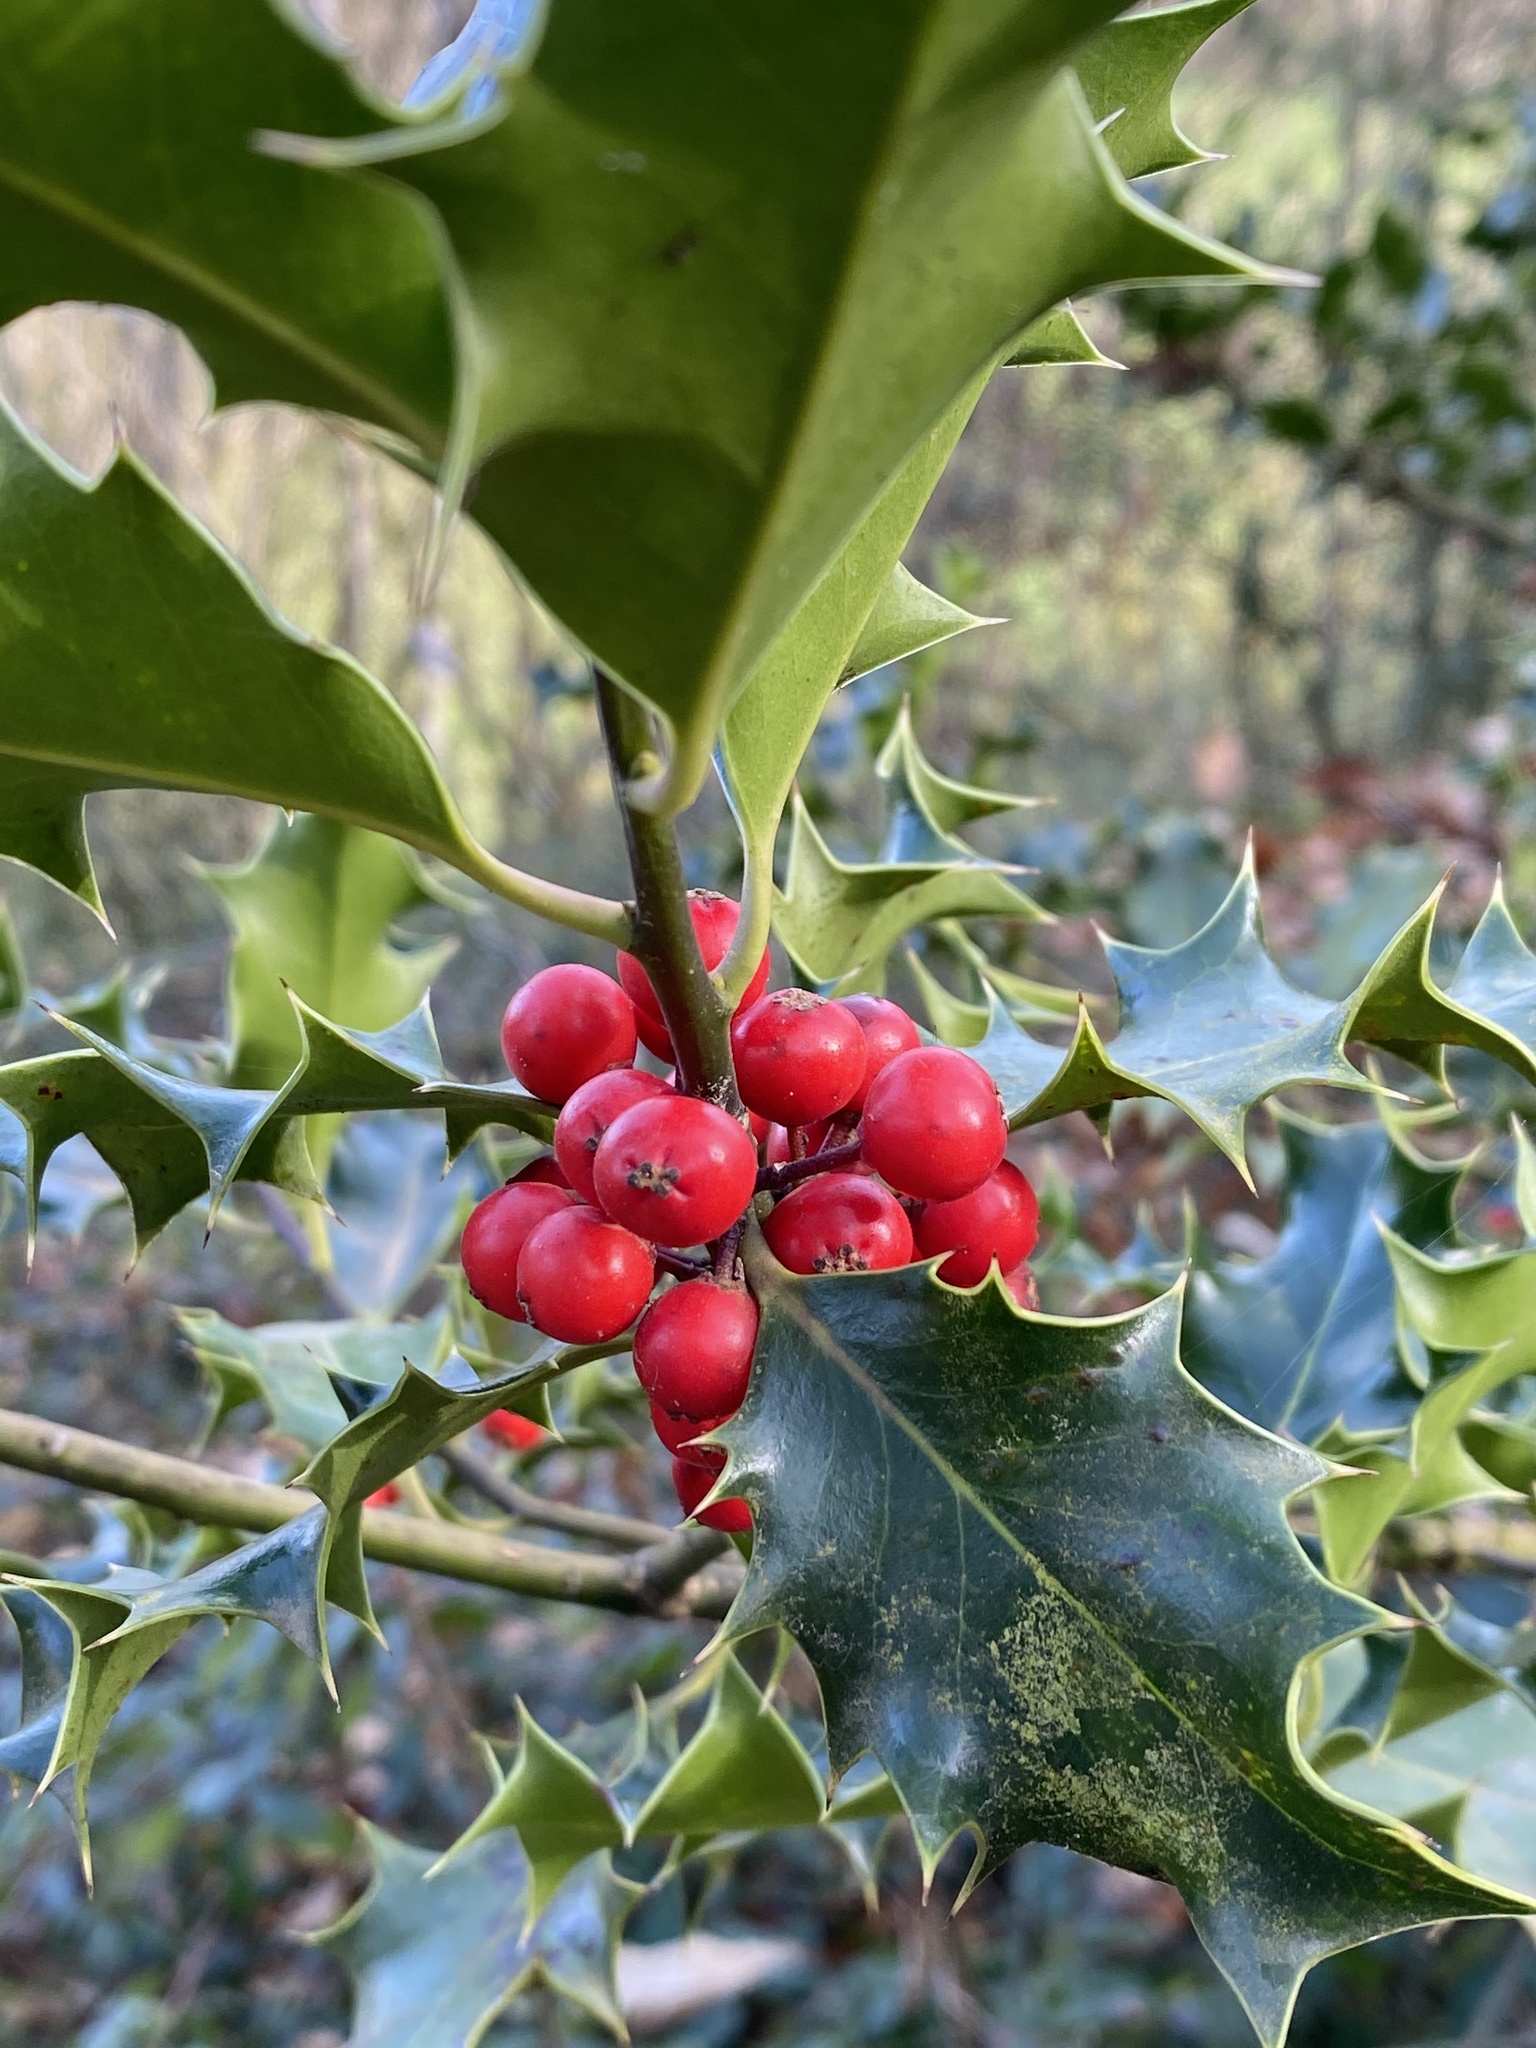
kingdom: Plantae
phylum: Tracheophyta
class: Magnoliopsida
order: Aquifoliales
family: Aquifoliaceae
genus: Ilex
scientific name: Ilex aquifolium
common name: English holly
